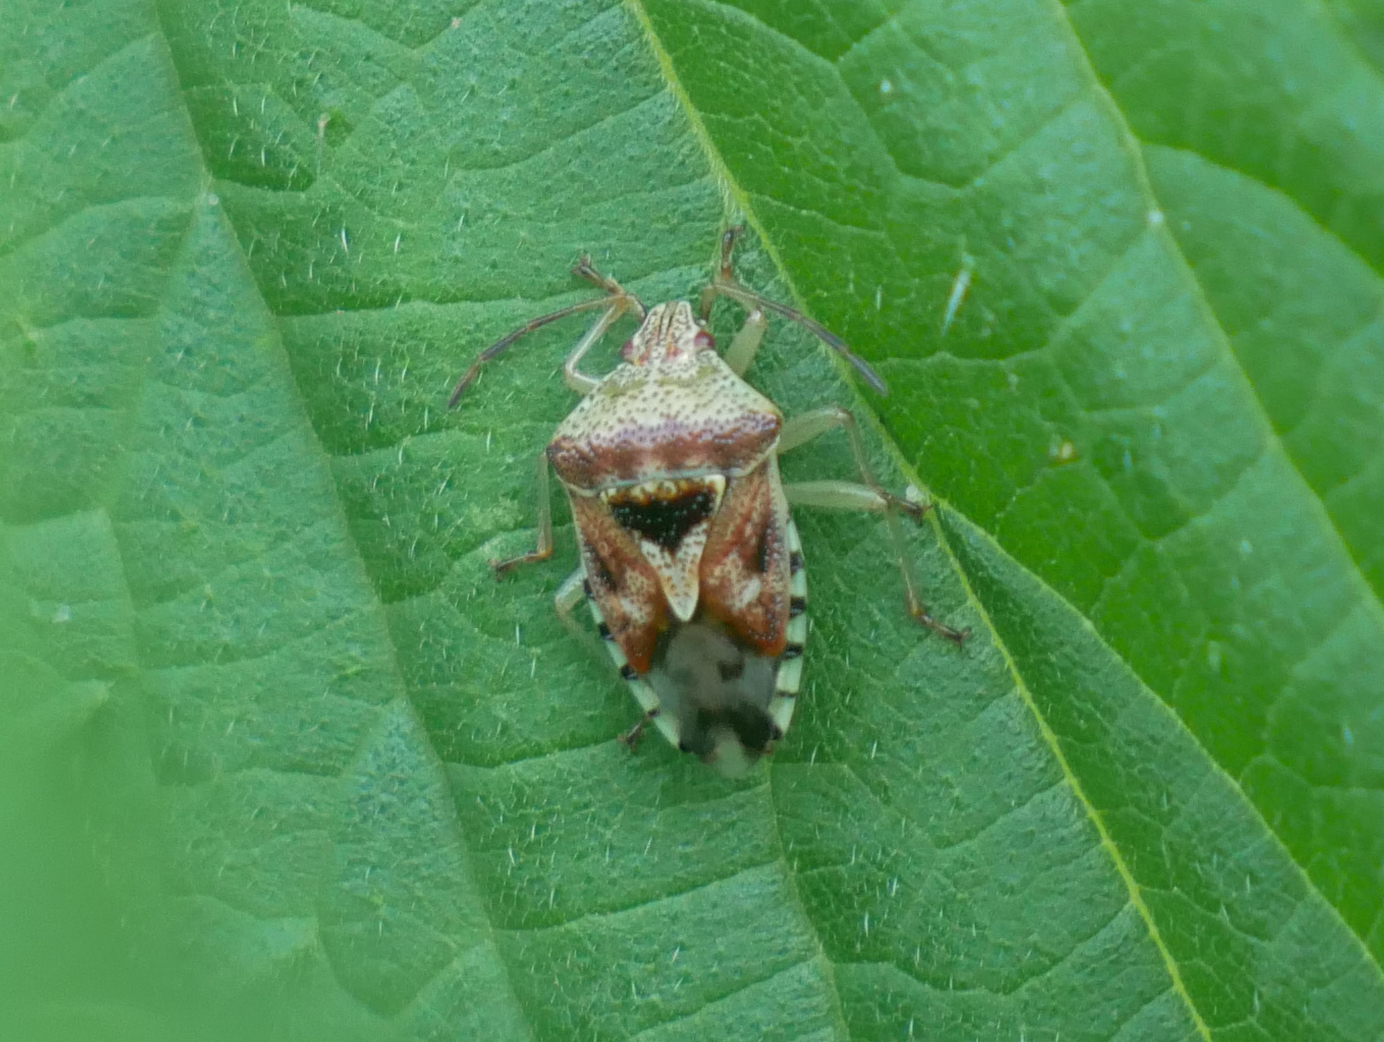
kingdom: Animalia
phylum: Arthropoda
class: Insecta
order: Hemiptera
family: Acanthosomatidae
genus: Elasmucha
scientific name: Elasmucha grisea
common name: Parent bug
